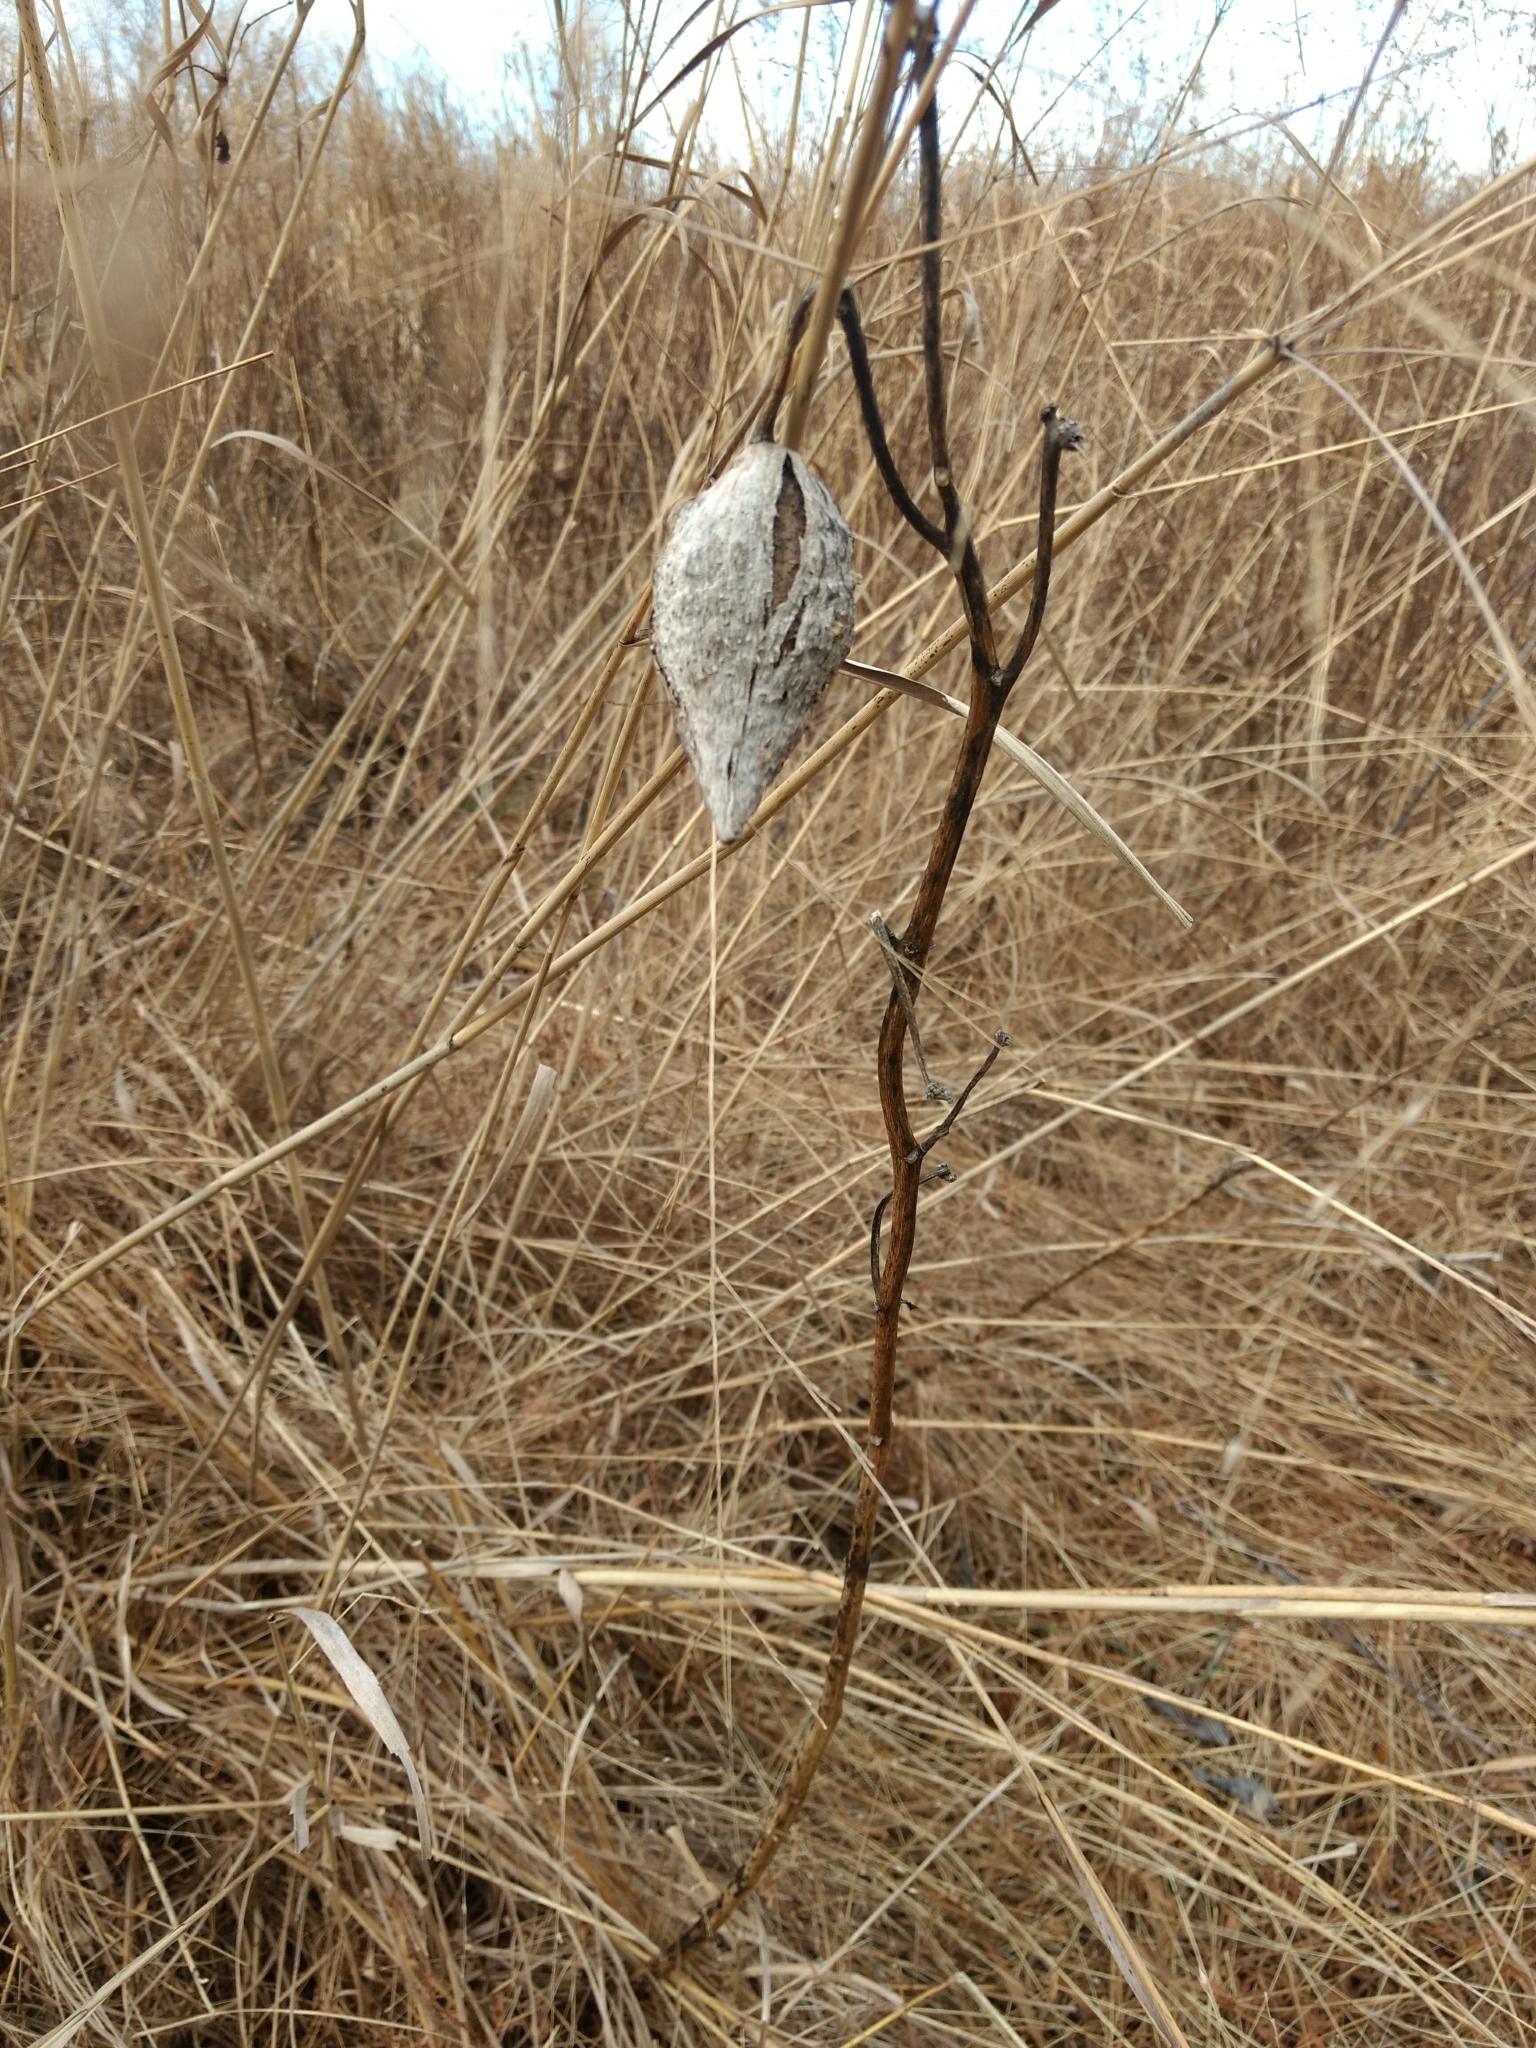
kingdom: Plantae
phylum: Tracheophyta
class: Magnoliopsida
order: Gentianales
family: Apocynaceae
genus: Asclepias
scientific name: Asclepias syriaca
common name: Common milkweed
